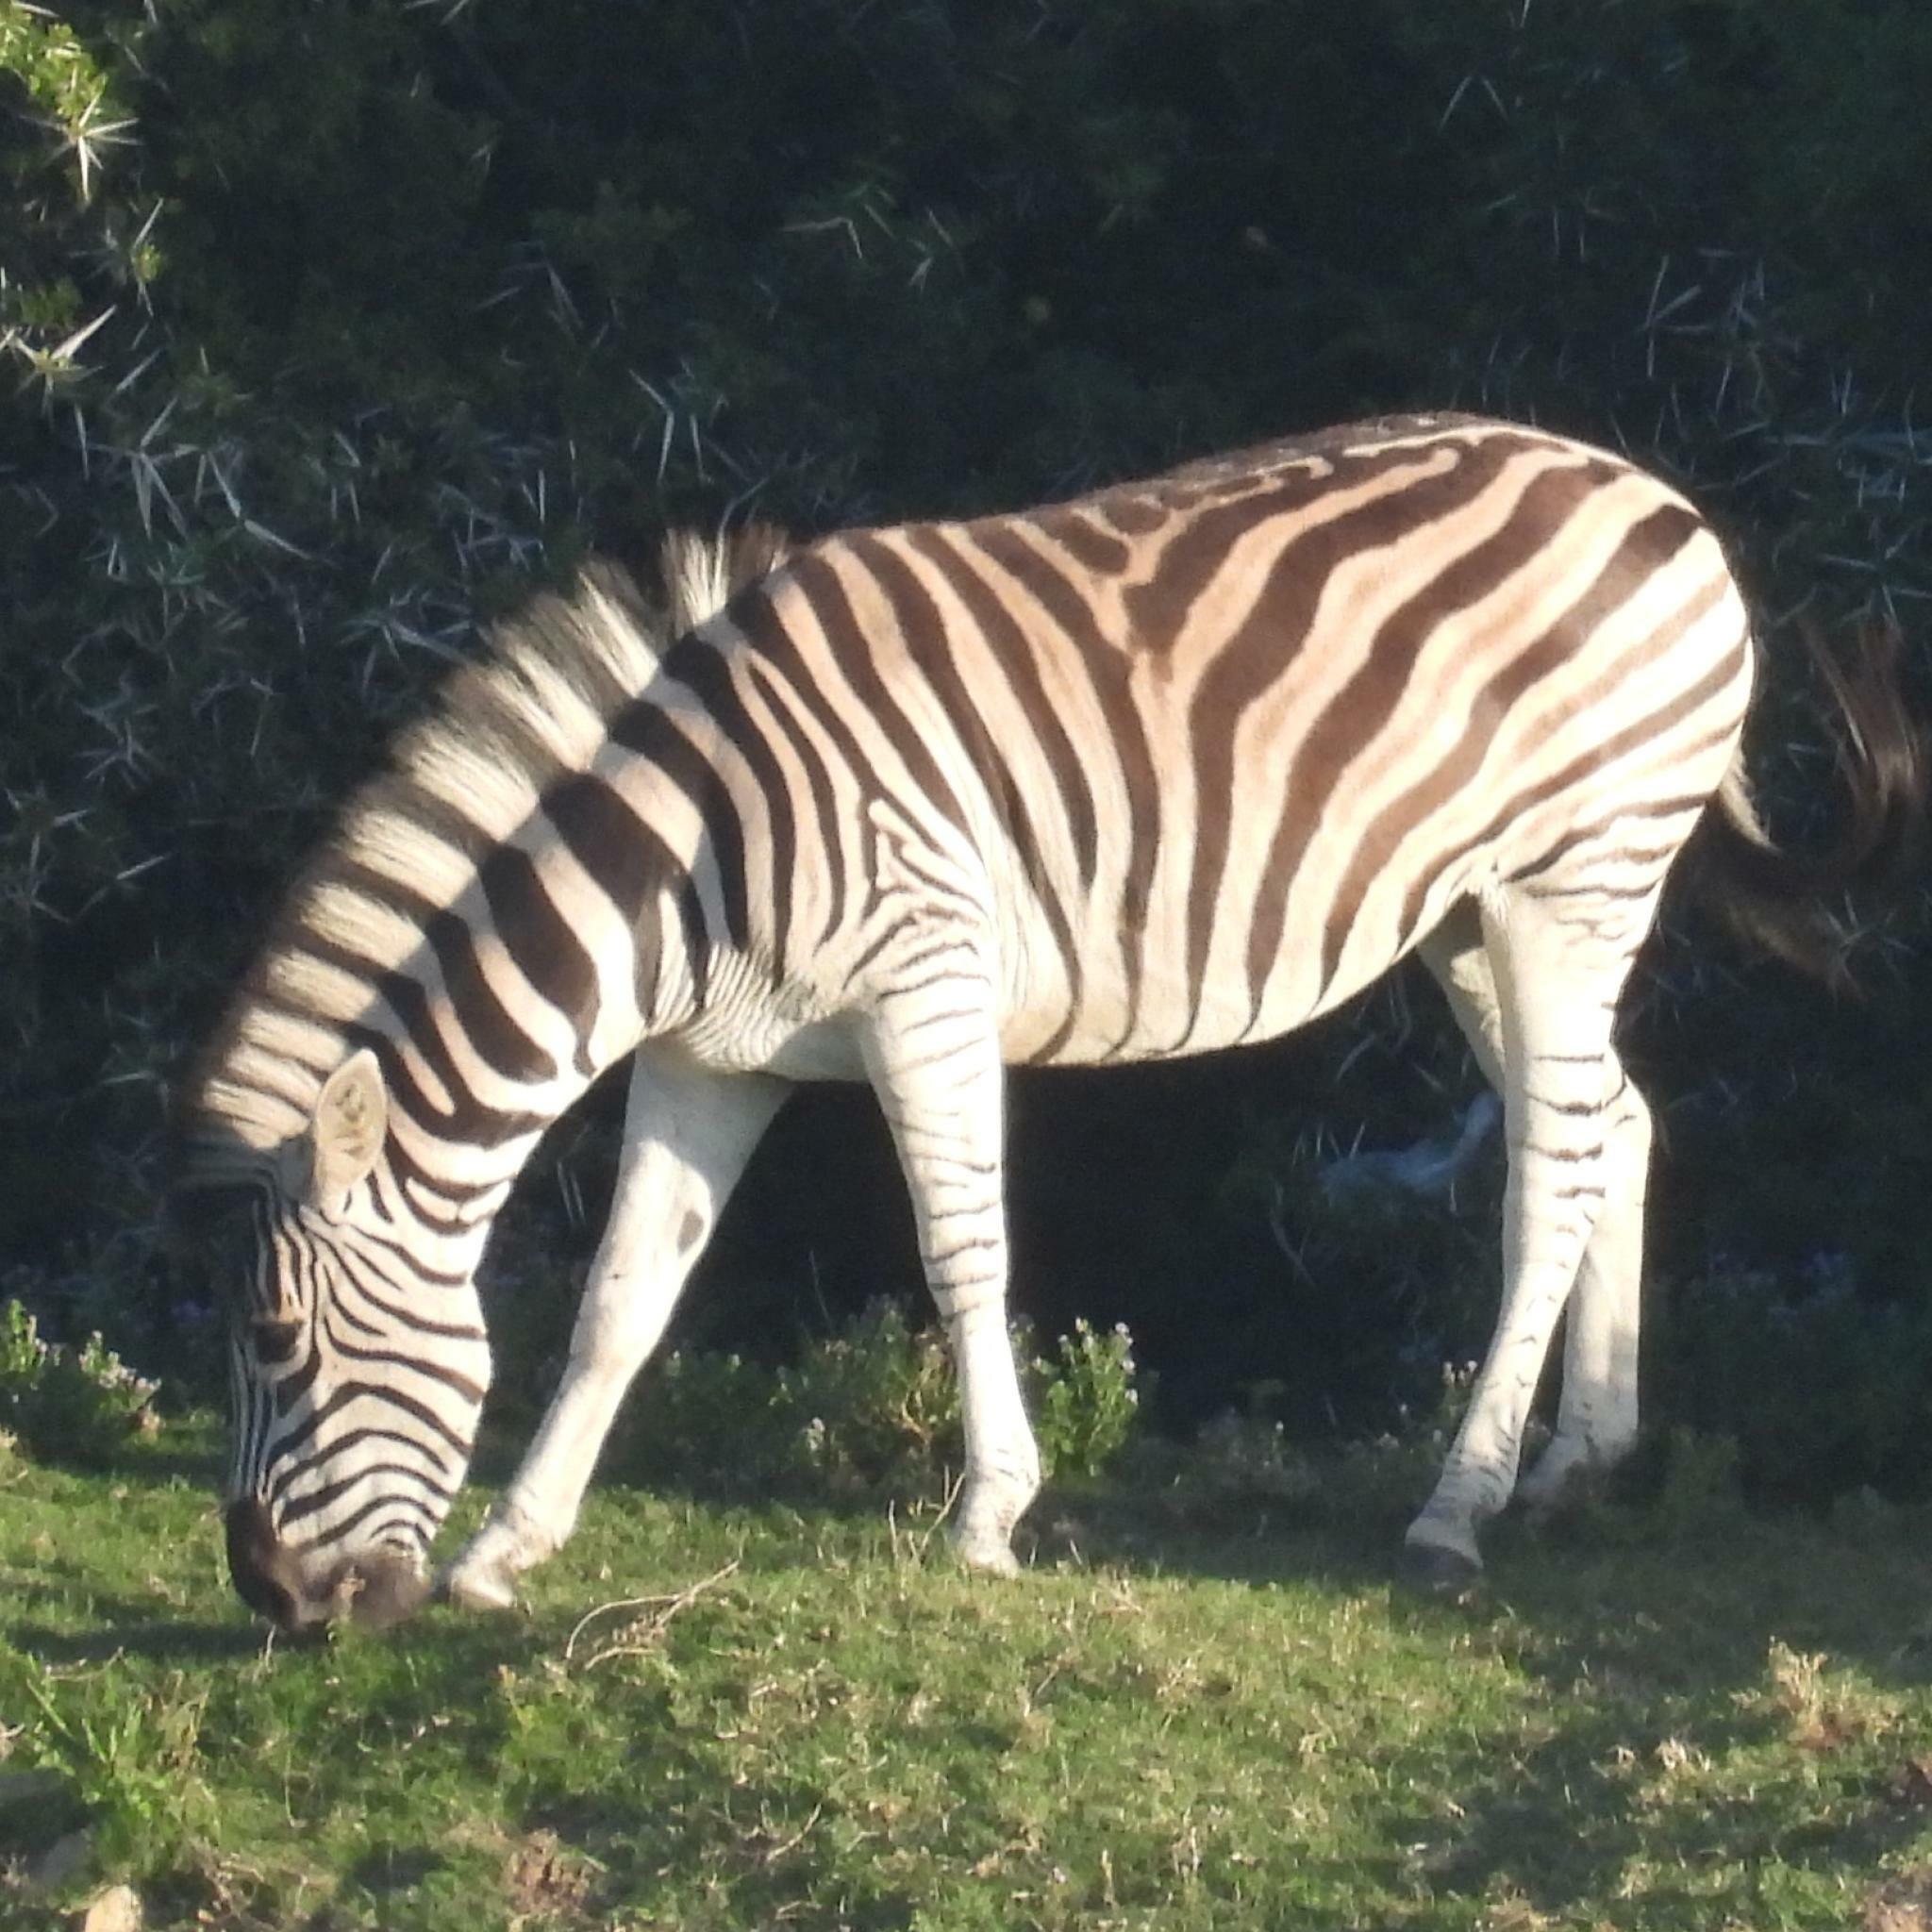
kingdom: Animalia
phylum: Chordata
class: Mammalia
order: Perissodactyla
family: Equidae
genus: Equus
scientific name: Equus quagga
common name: Plains zebra
